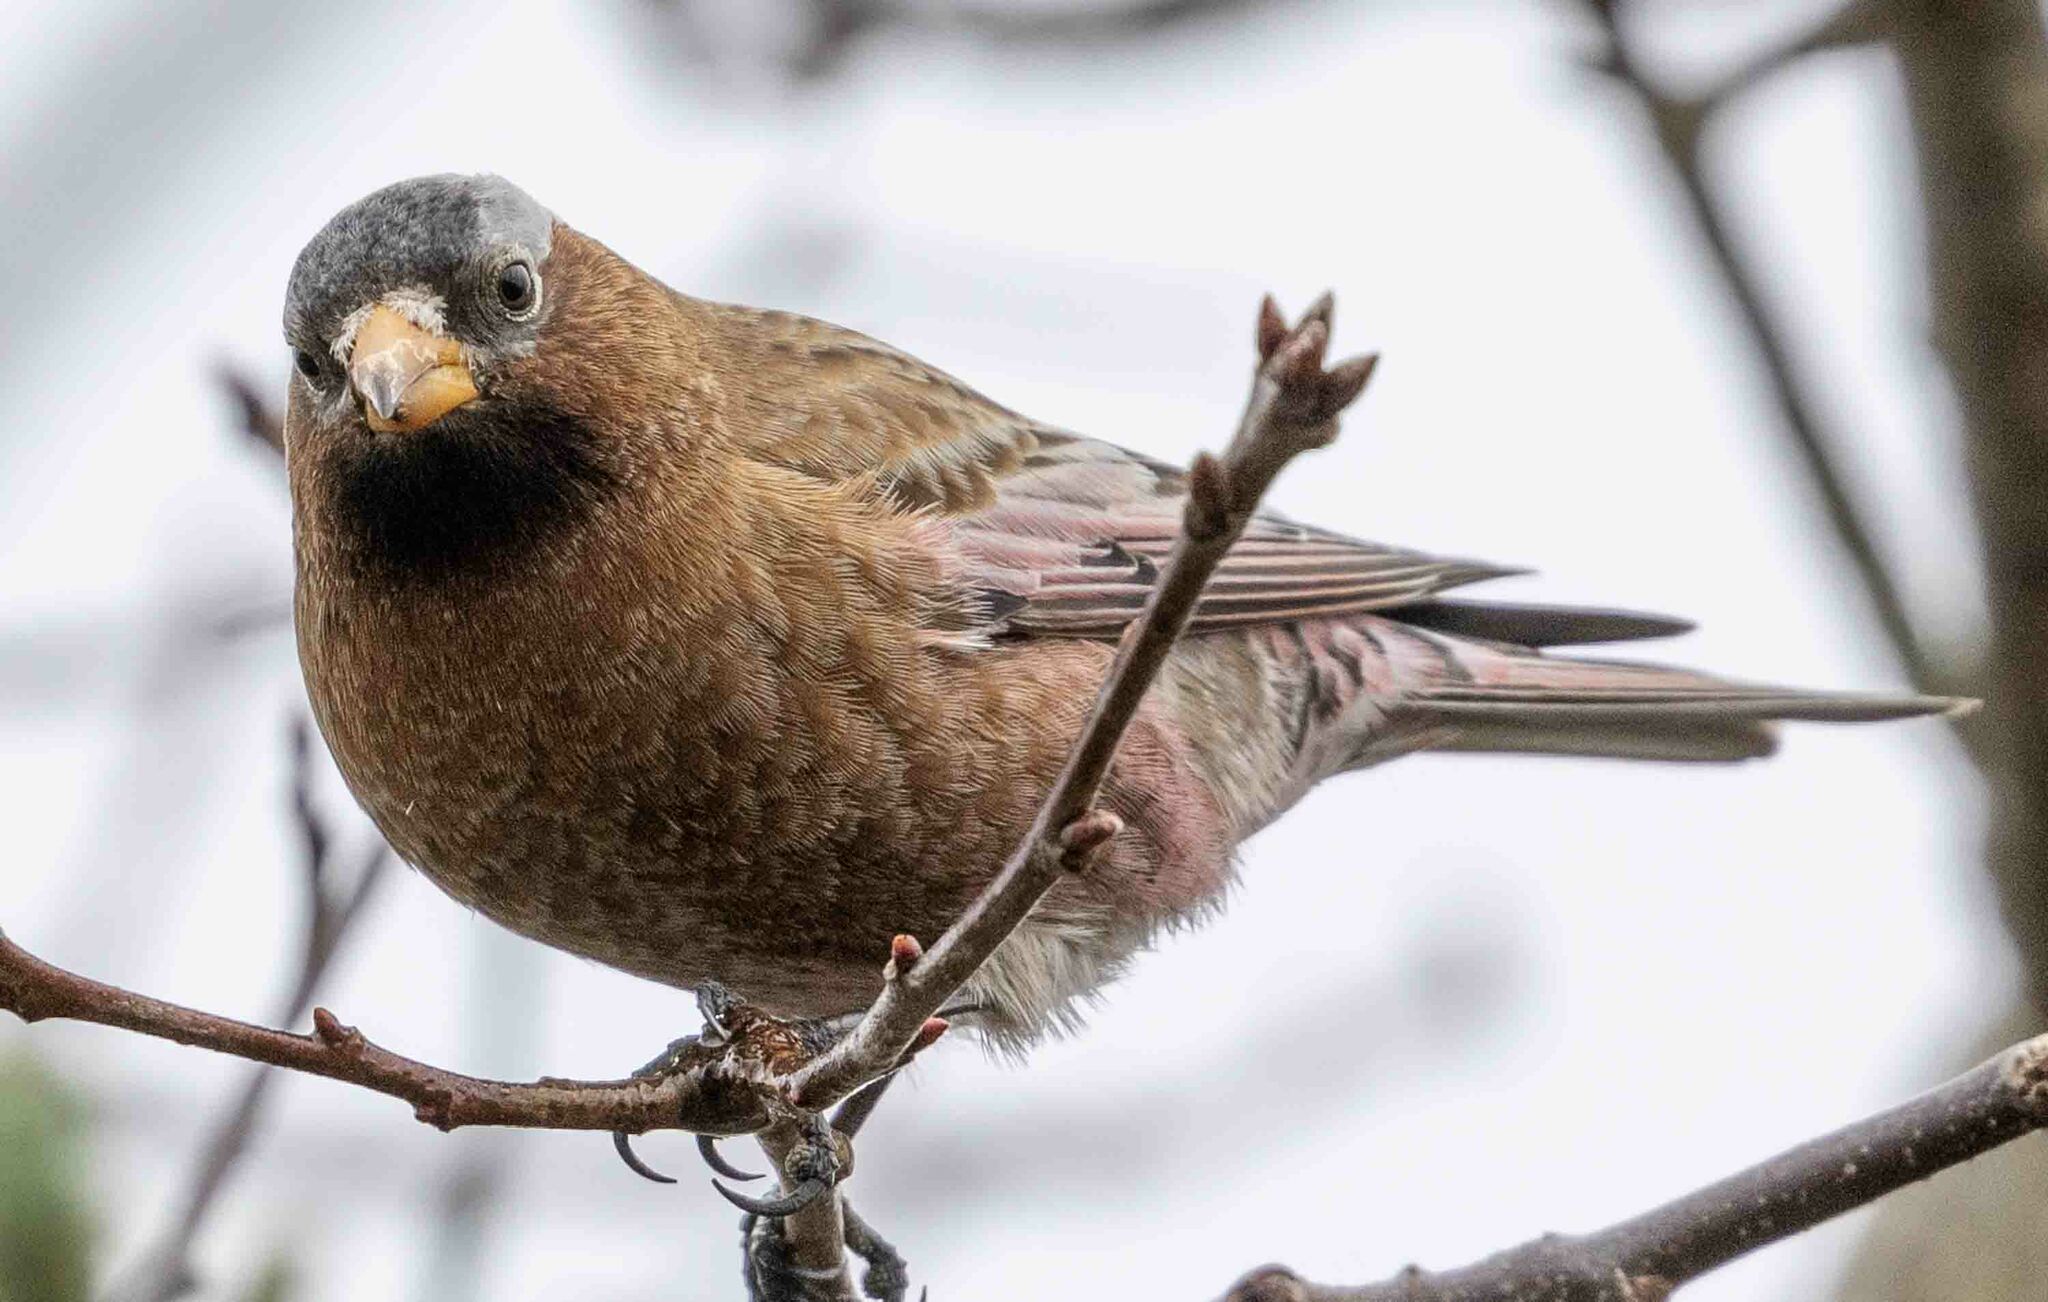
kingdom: Animalia
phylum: Chordata
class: Aves
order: Passeriformes
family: Fringillidae
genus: Leucosticte
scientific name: Leucosticte tephrocotis
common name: Gray-crowned rosy-finch
